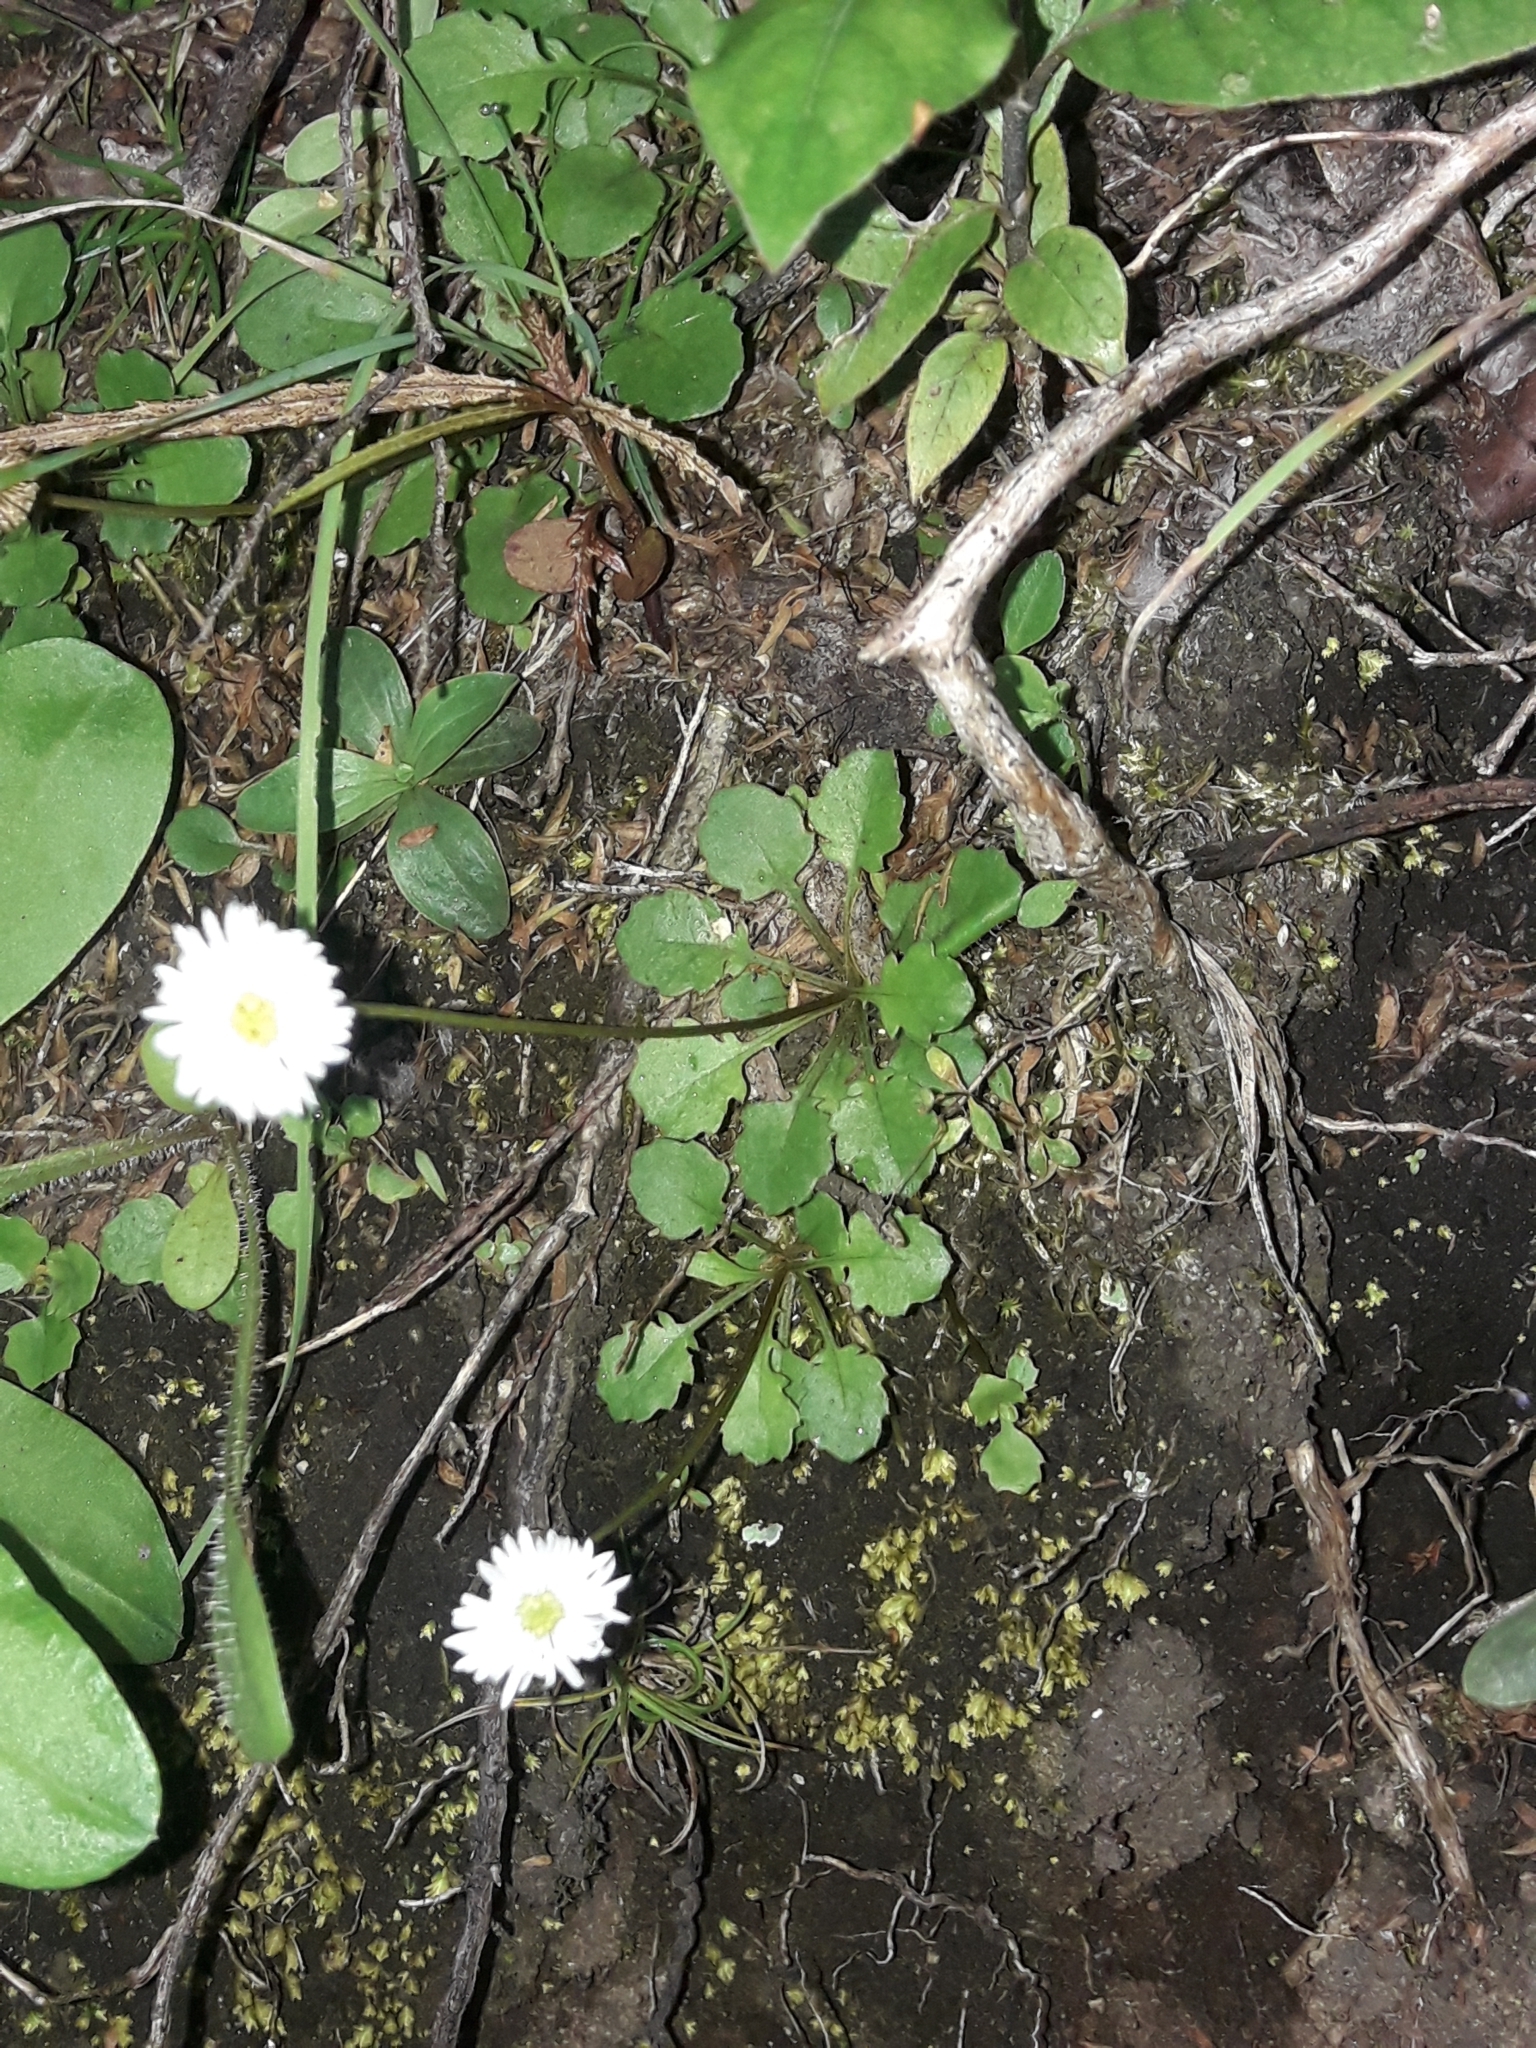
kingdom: Plantae
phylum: Tracheophyta
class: Magnoliopsida
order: Asterales
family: Asteraceae
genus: Lagenophora
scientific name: Lagenophora pumila
